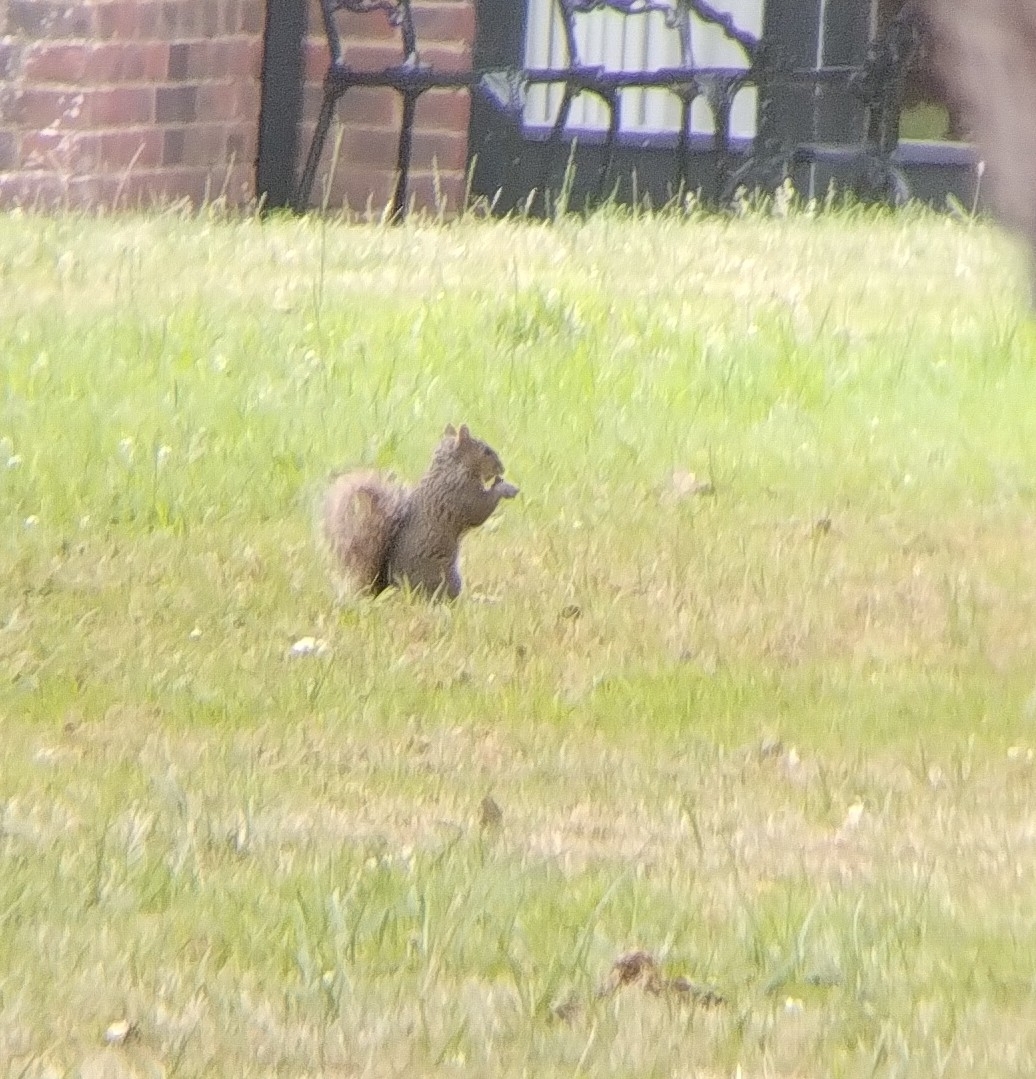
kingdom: Animalia
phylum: Chordata
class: Mammalia
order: Rodentia
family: Sciuridae
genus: Sciurus
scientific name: Sciurus carolinensis
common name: Eastern gray squirrel
